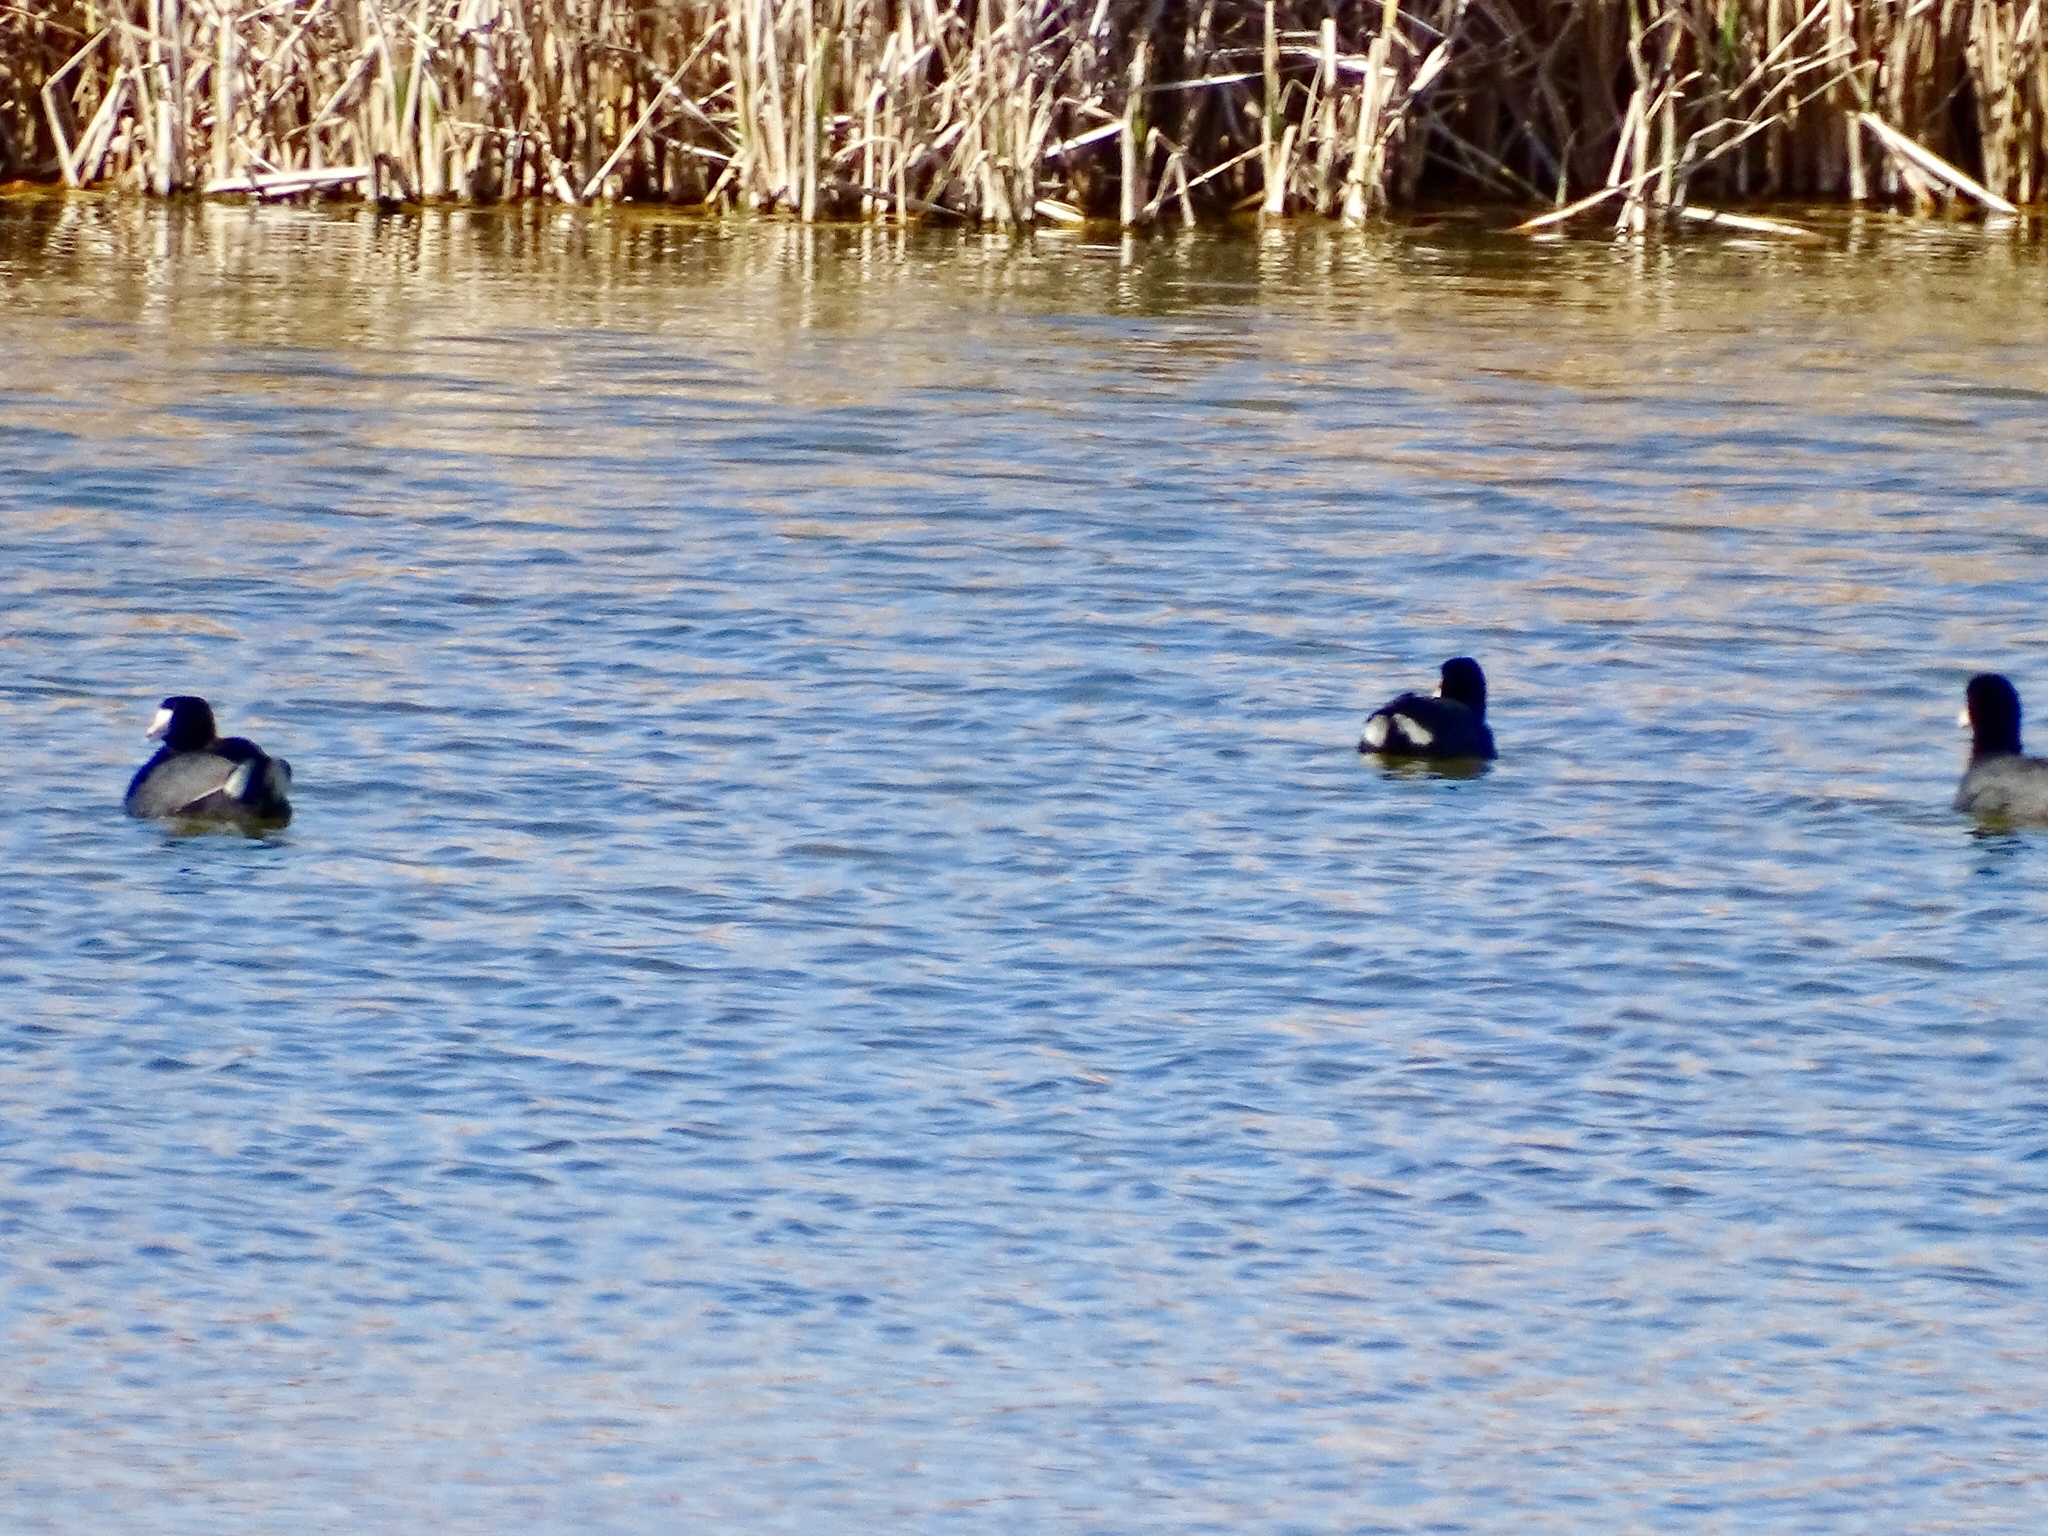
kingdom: Animalia
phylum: Chordata
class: Aves
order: Gruiformes
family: Rallidae
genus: Fulica
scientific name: Fulica americana
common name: American coot
